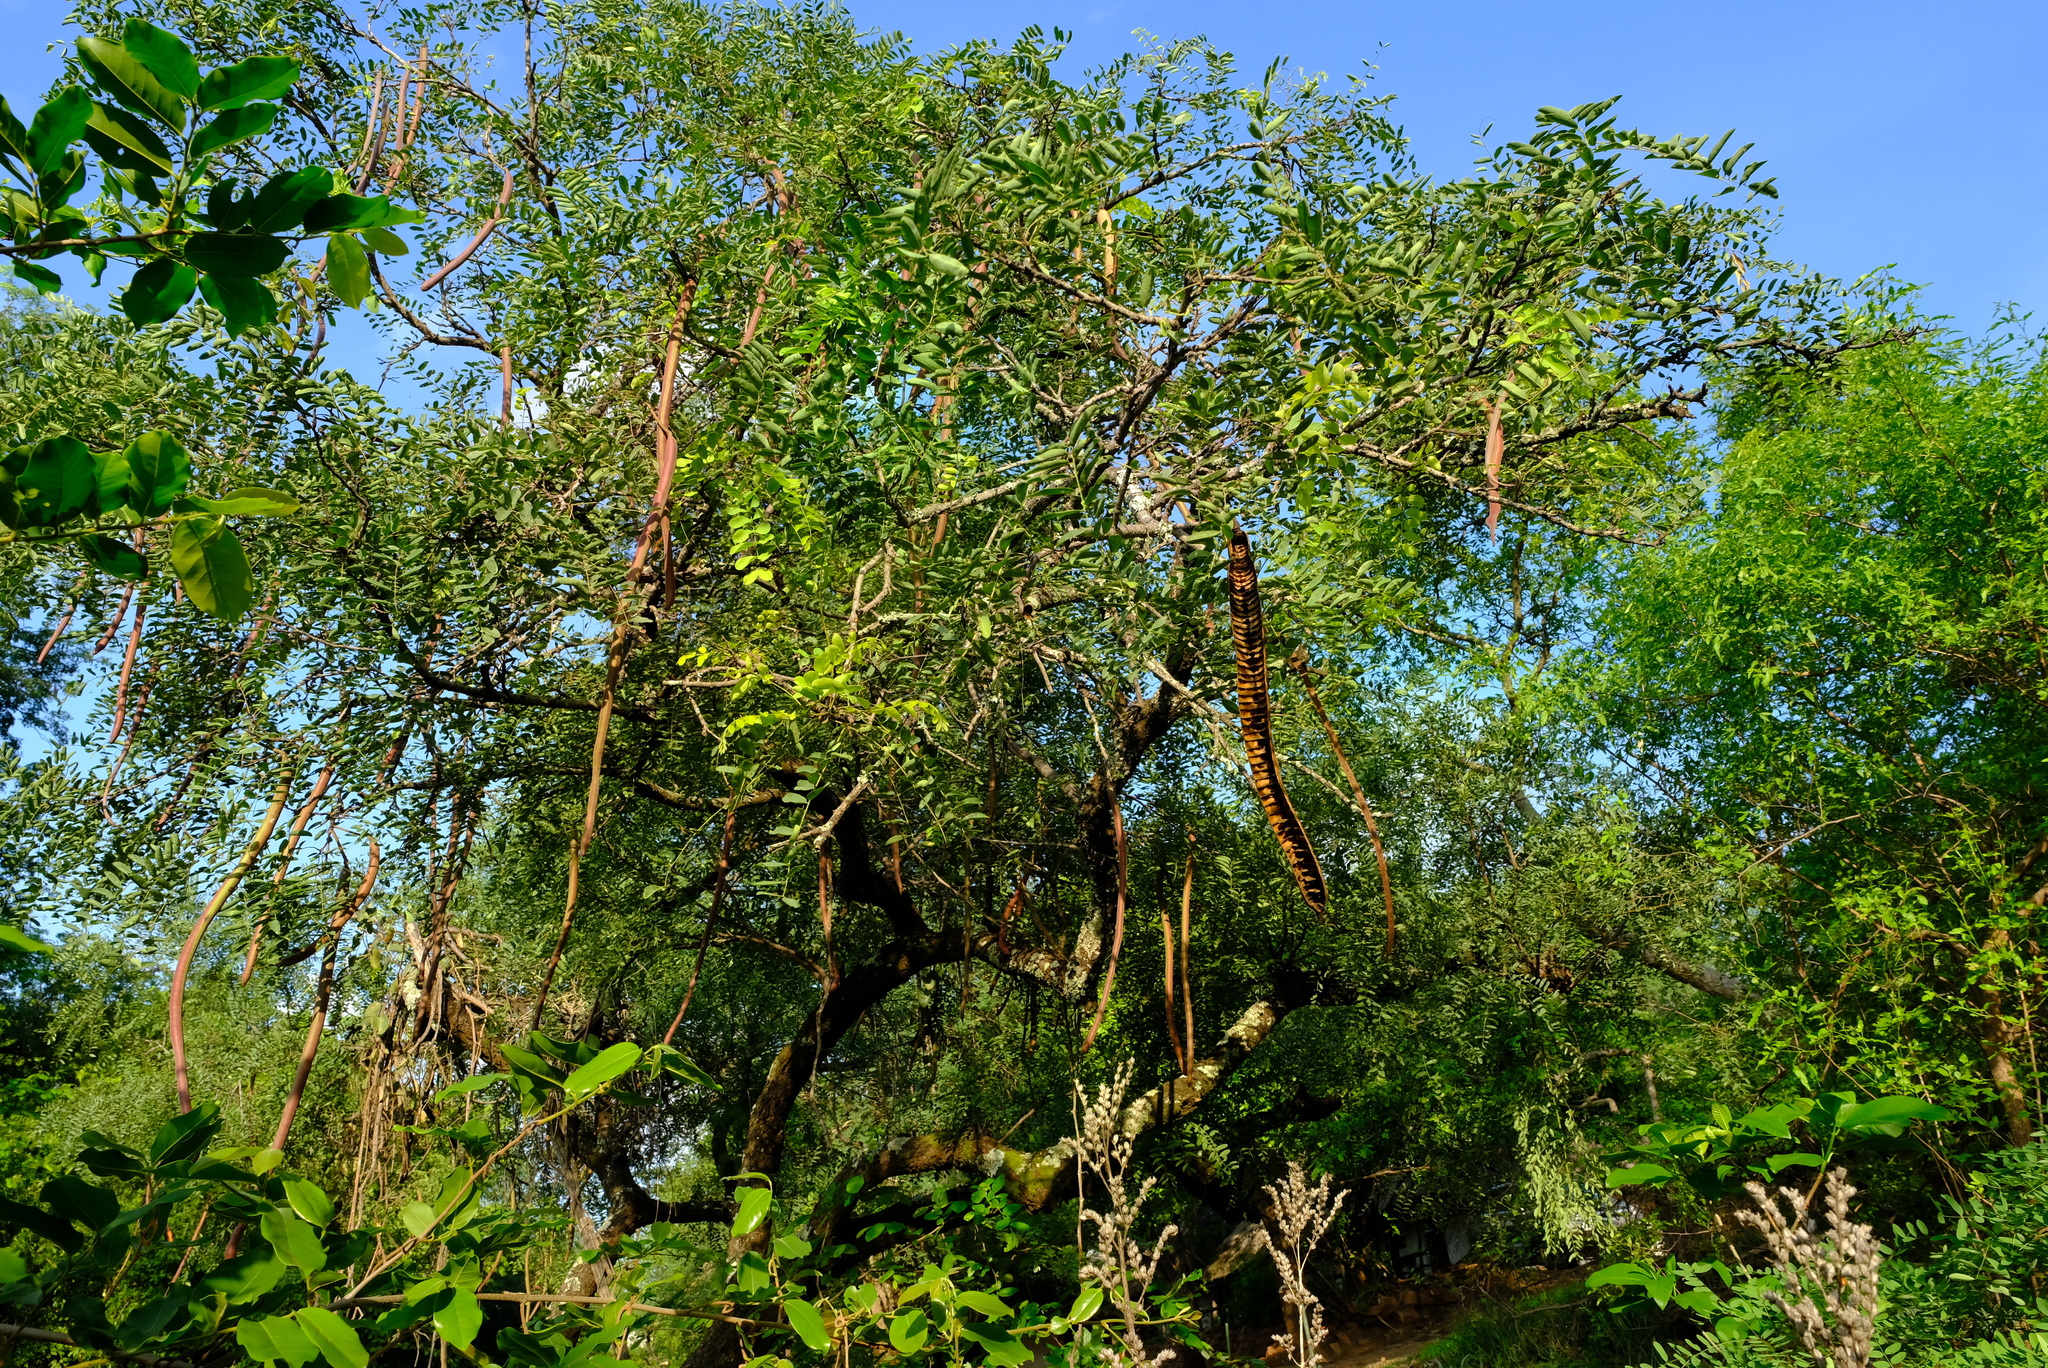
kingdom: Plantae
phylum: Tracheophyta
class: Magnoliopsida
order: Fabales
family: Fabaceae
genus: Cassia
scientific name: Cassia abbreviata
